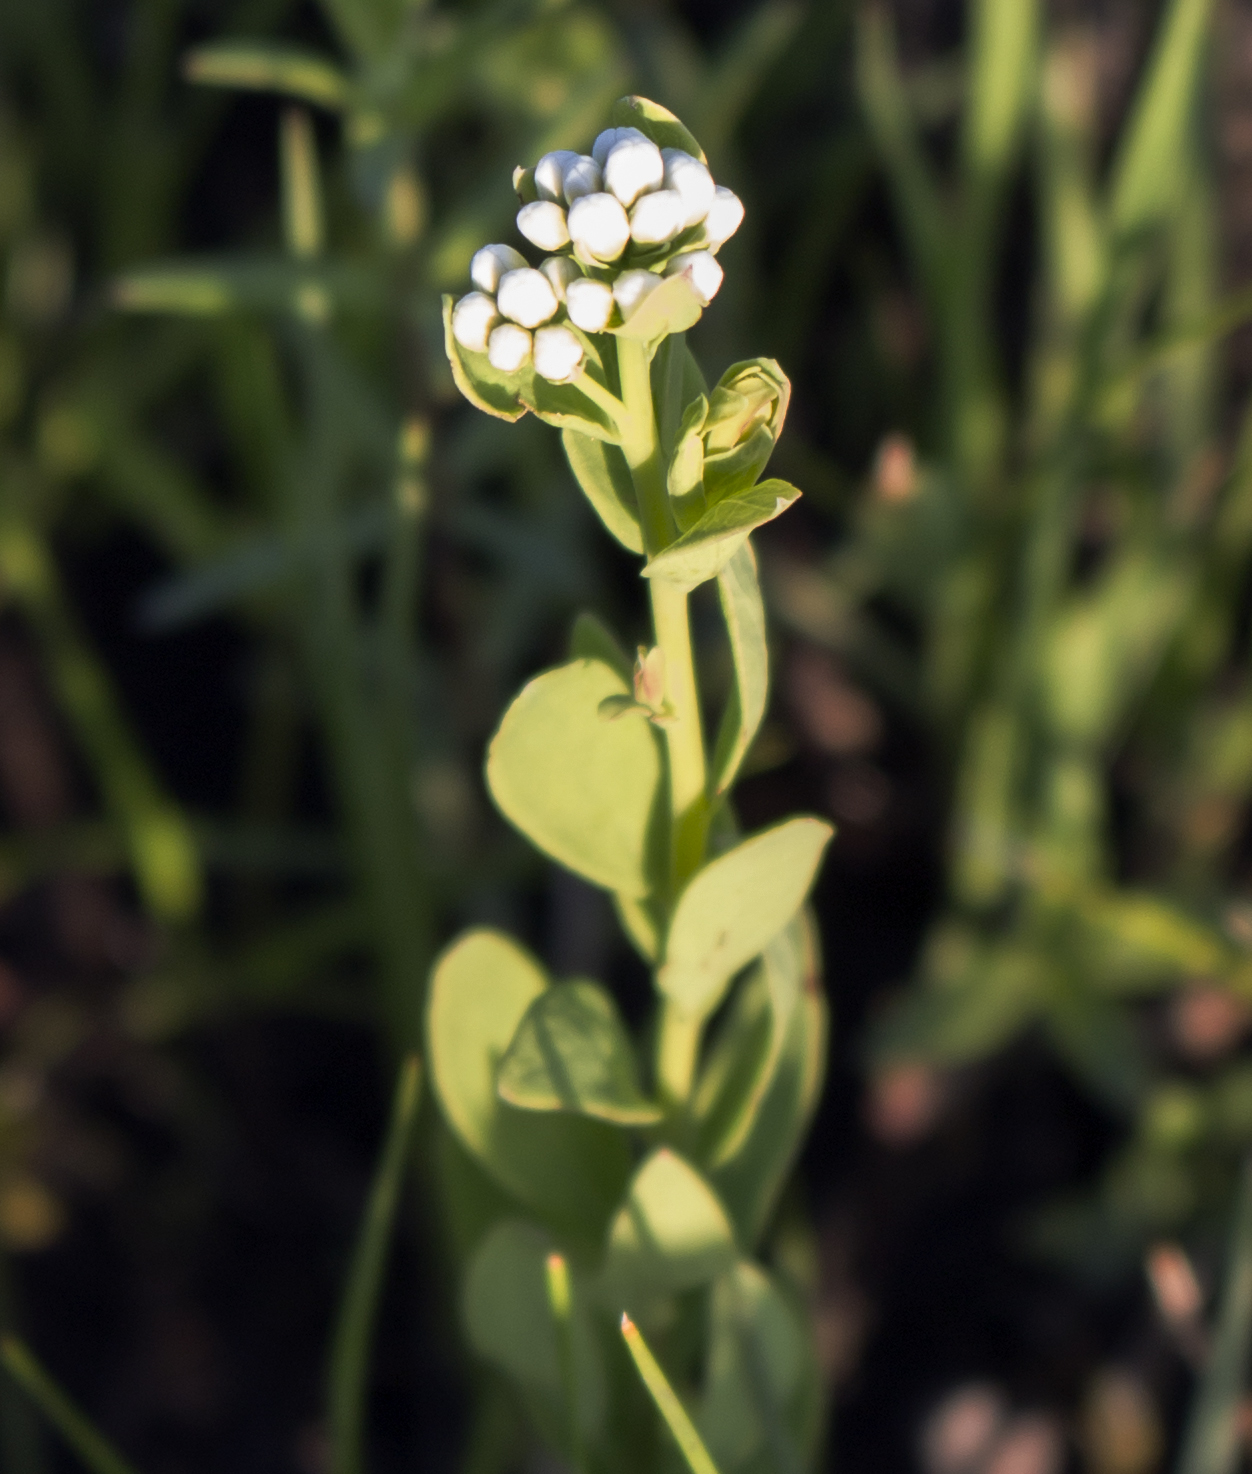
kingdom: Plantae
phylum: Tracheophyta
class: Magnoliopsida
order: Santalales
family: Comandraceae
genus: Comandra
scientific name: Comandra umbellata
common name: Bastard toadflax
